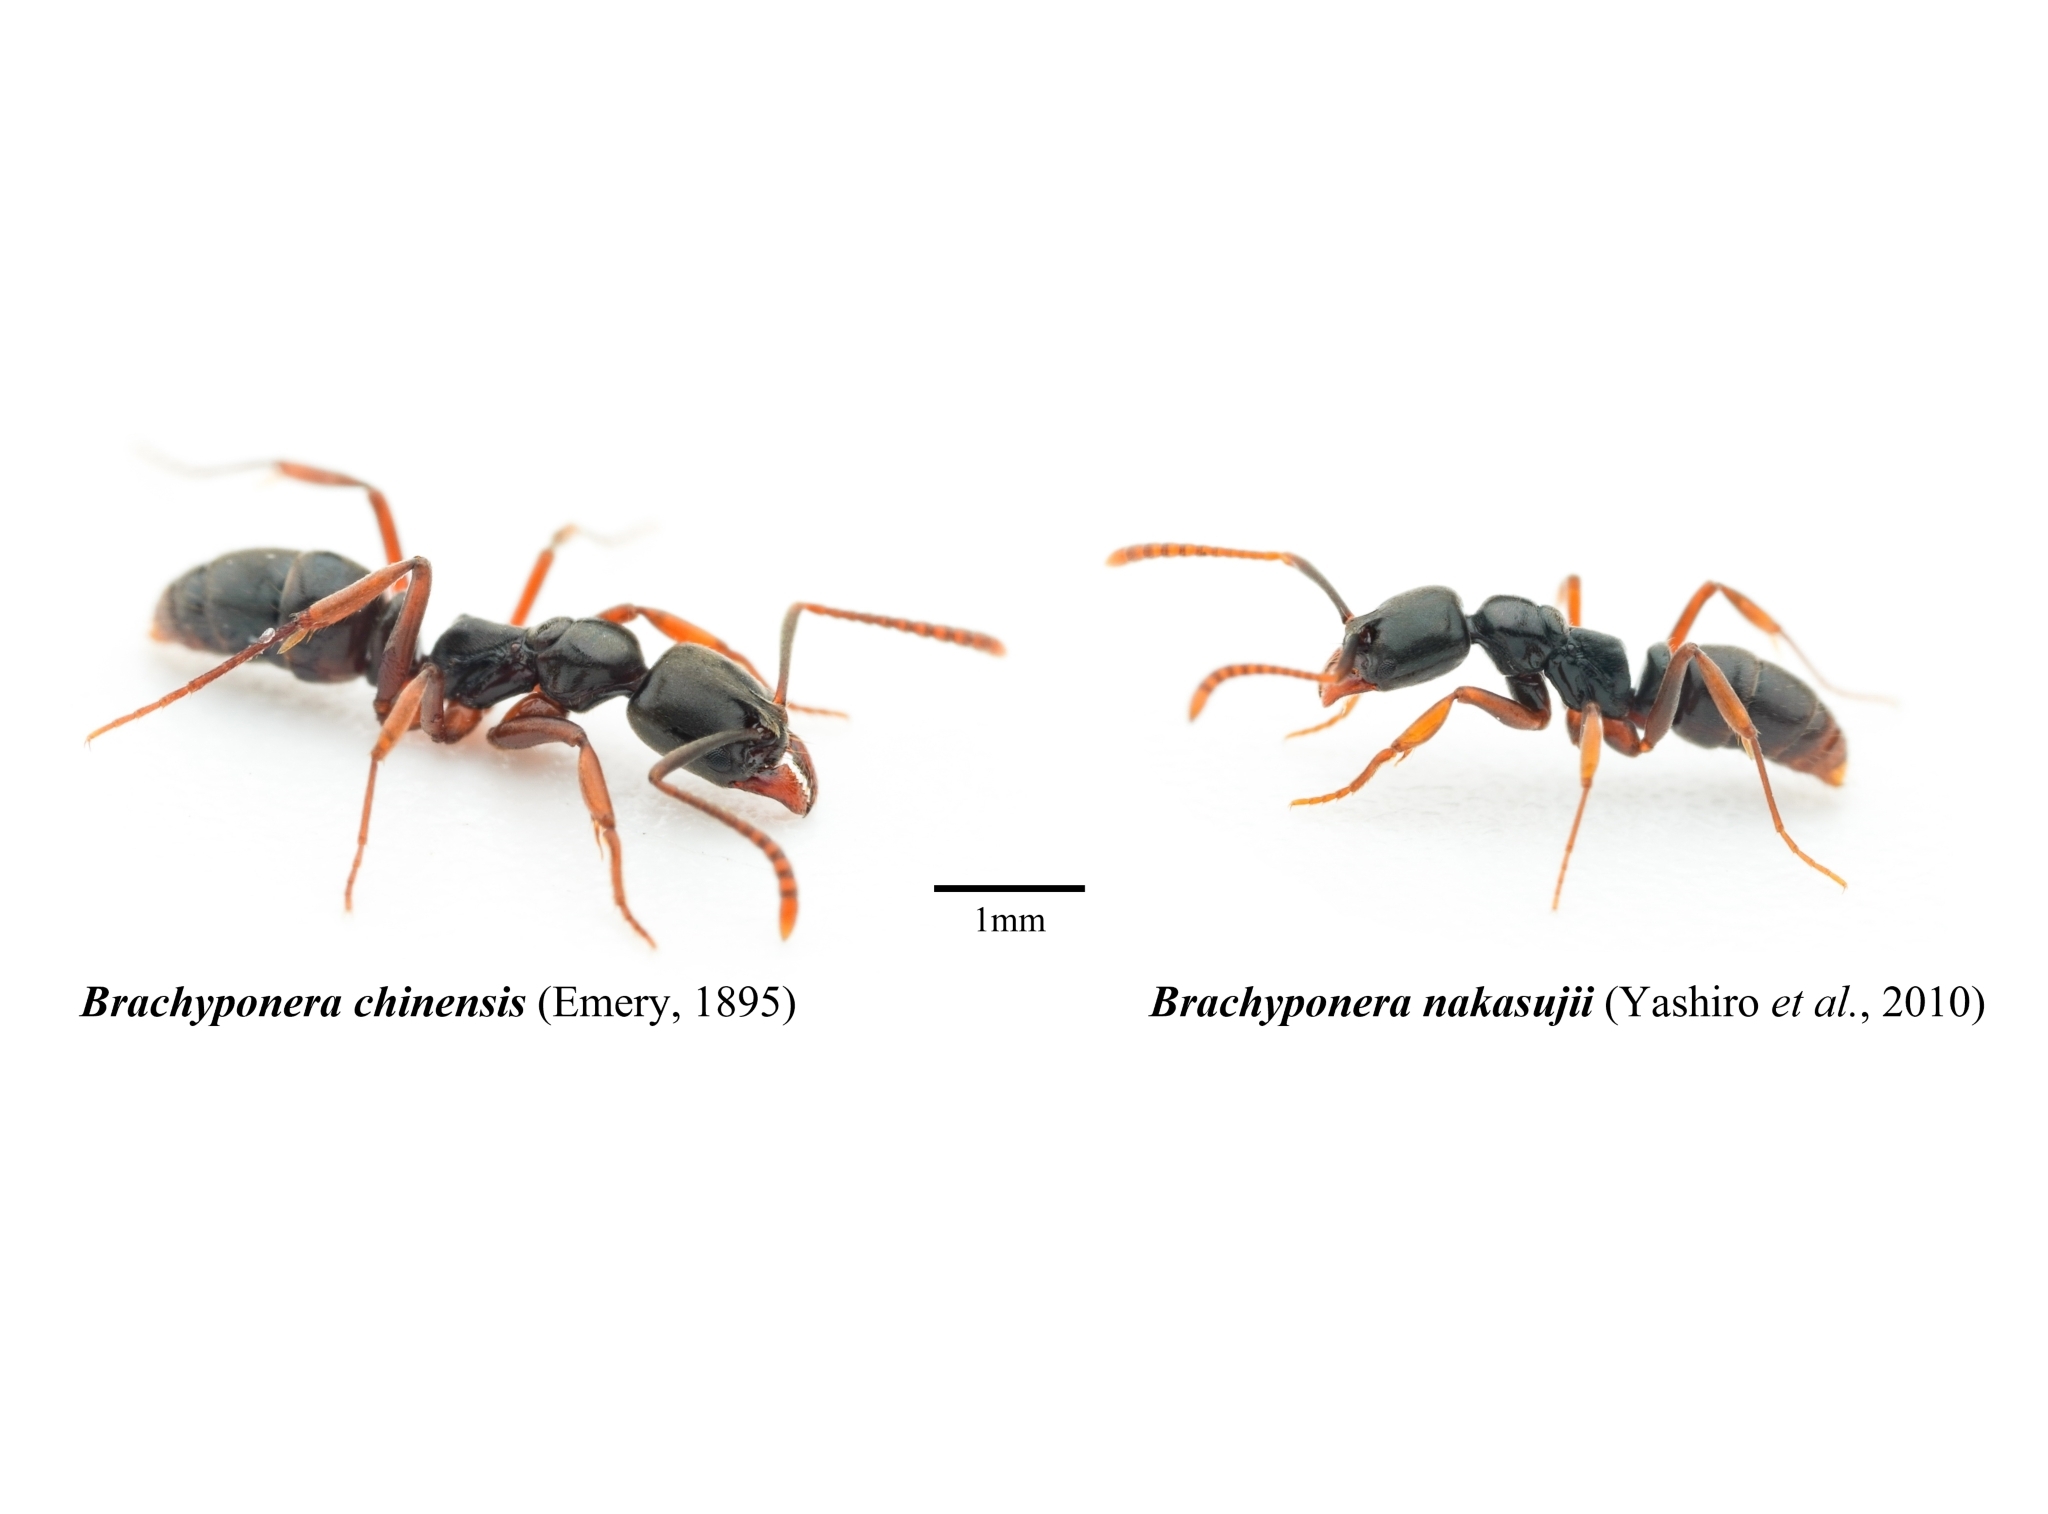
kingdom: Animalia
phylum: Arthropoda
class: Insecta
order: Hymenoptera
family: Formicidae
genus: Pachycondyla
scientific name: Pachycondyla chinensis
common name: Asian needle ant
